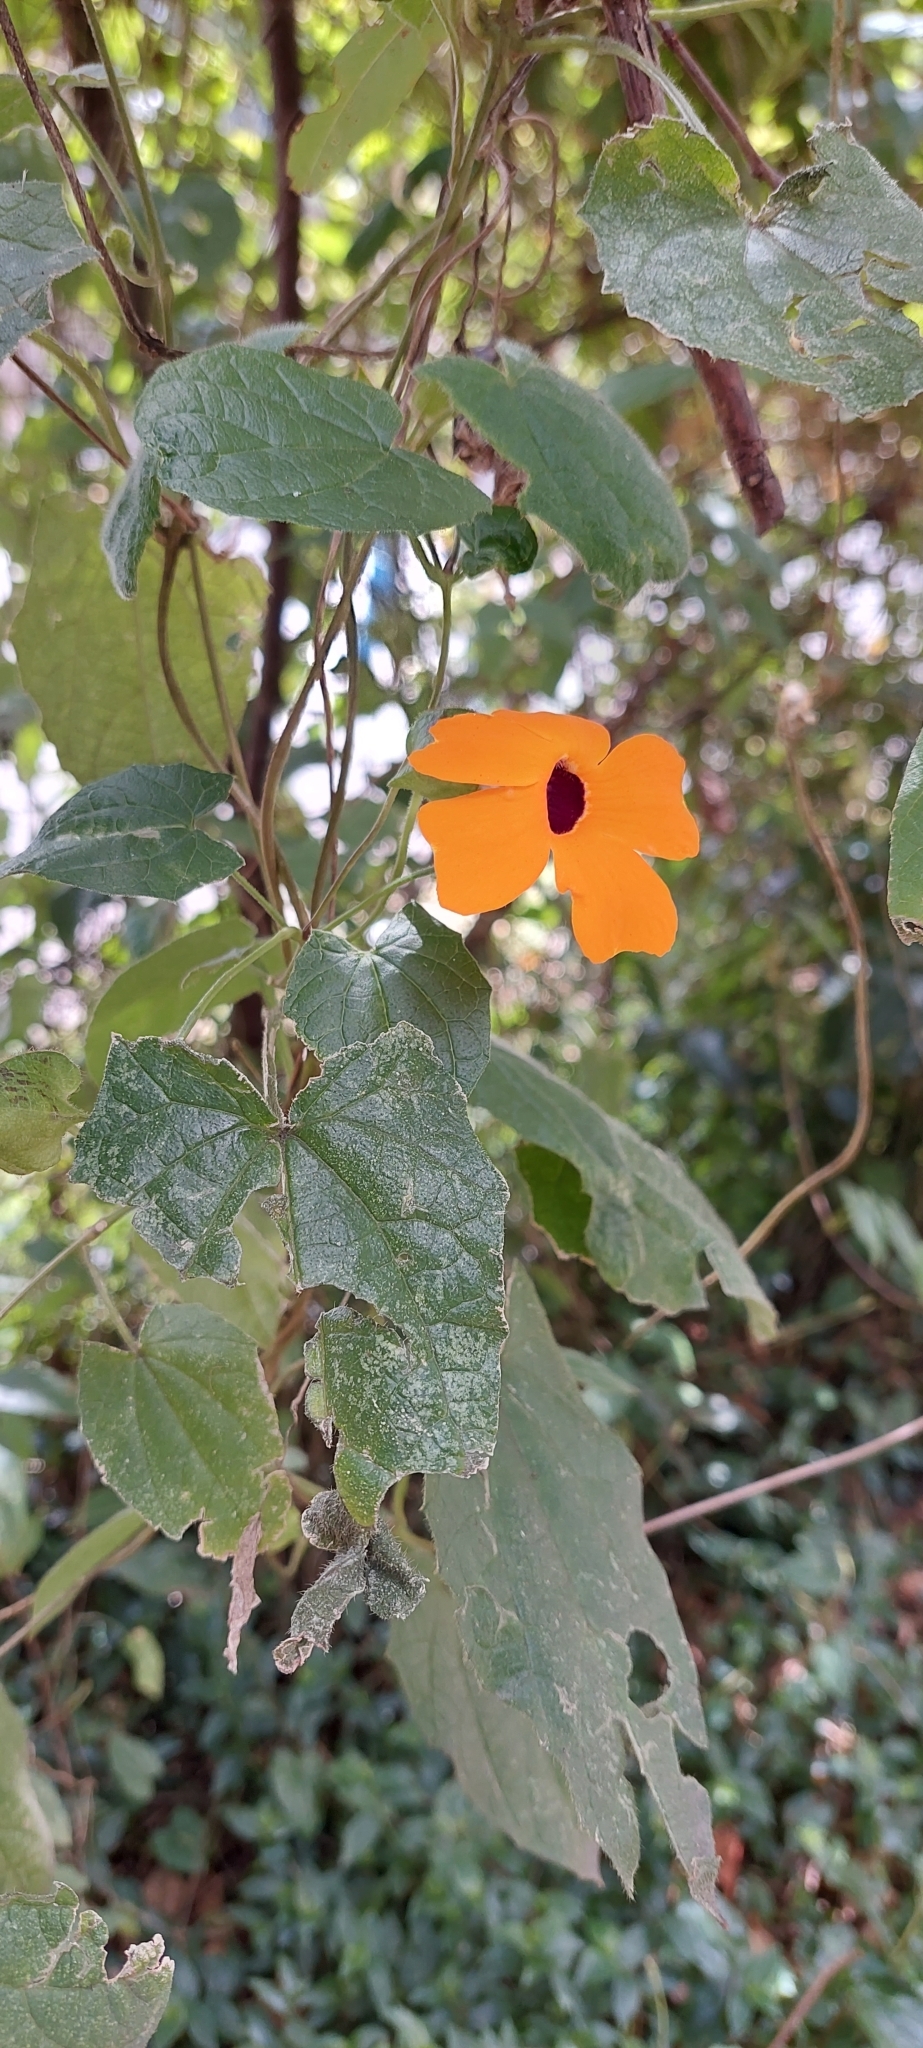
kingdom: Plantae
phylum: Tracheophyta
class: Magnoliopsida
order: Lamiales
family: Acanthaceae
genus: Thunbergia
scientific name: Thunbergia alata
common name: Blackeyed susan vine
